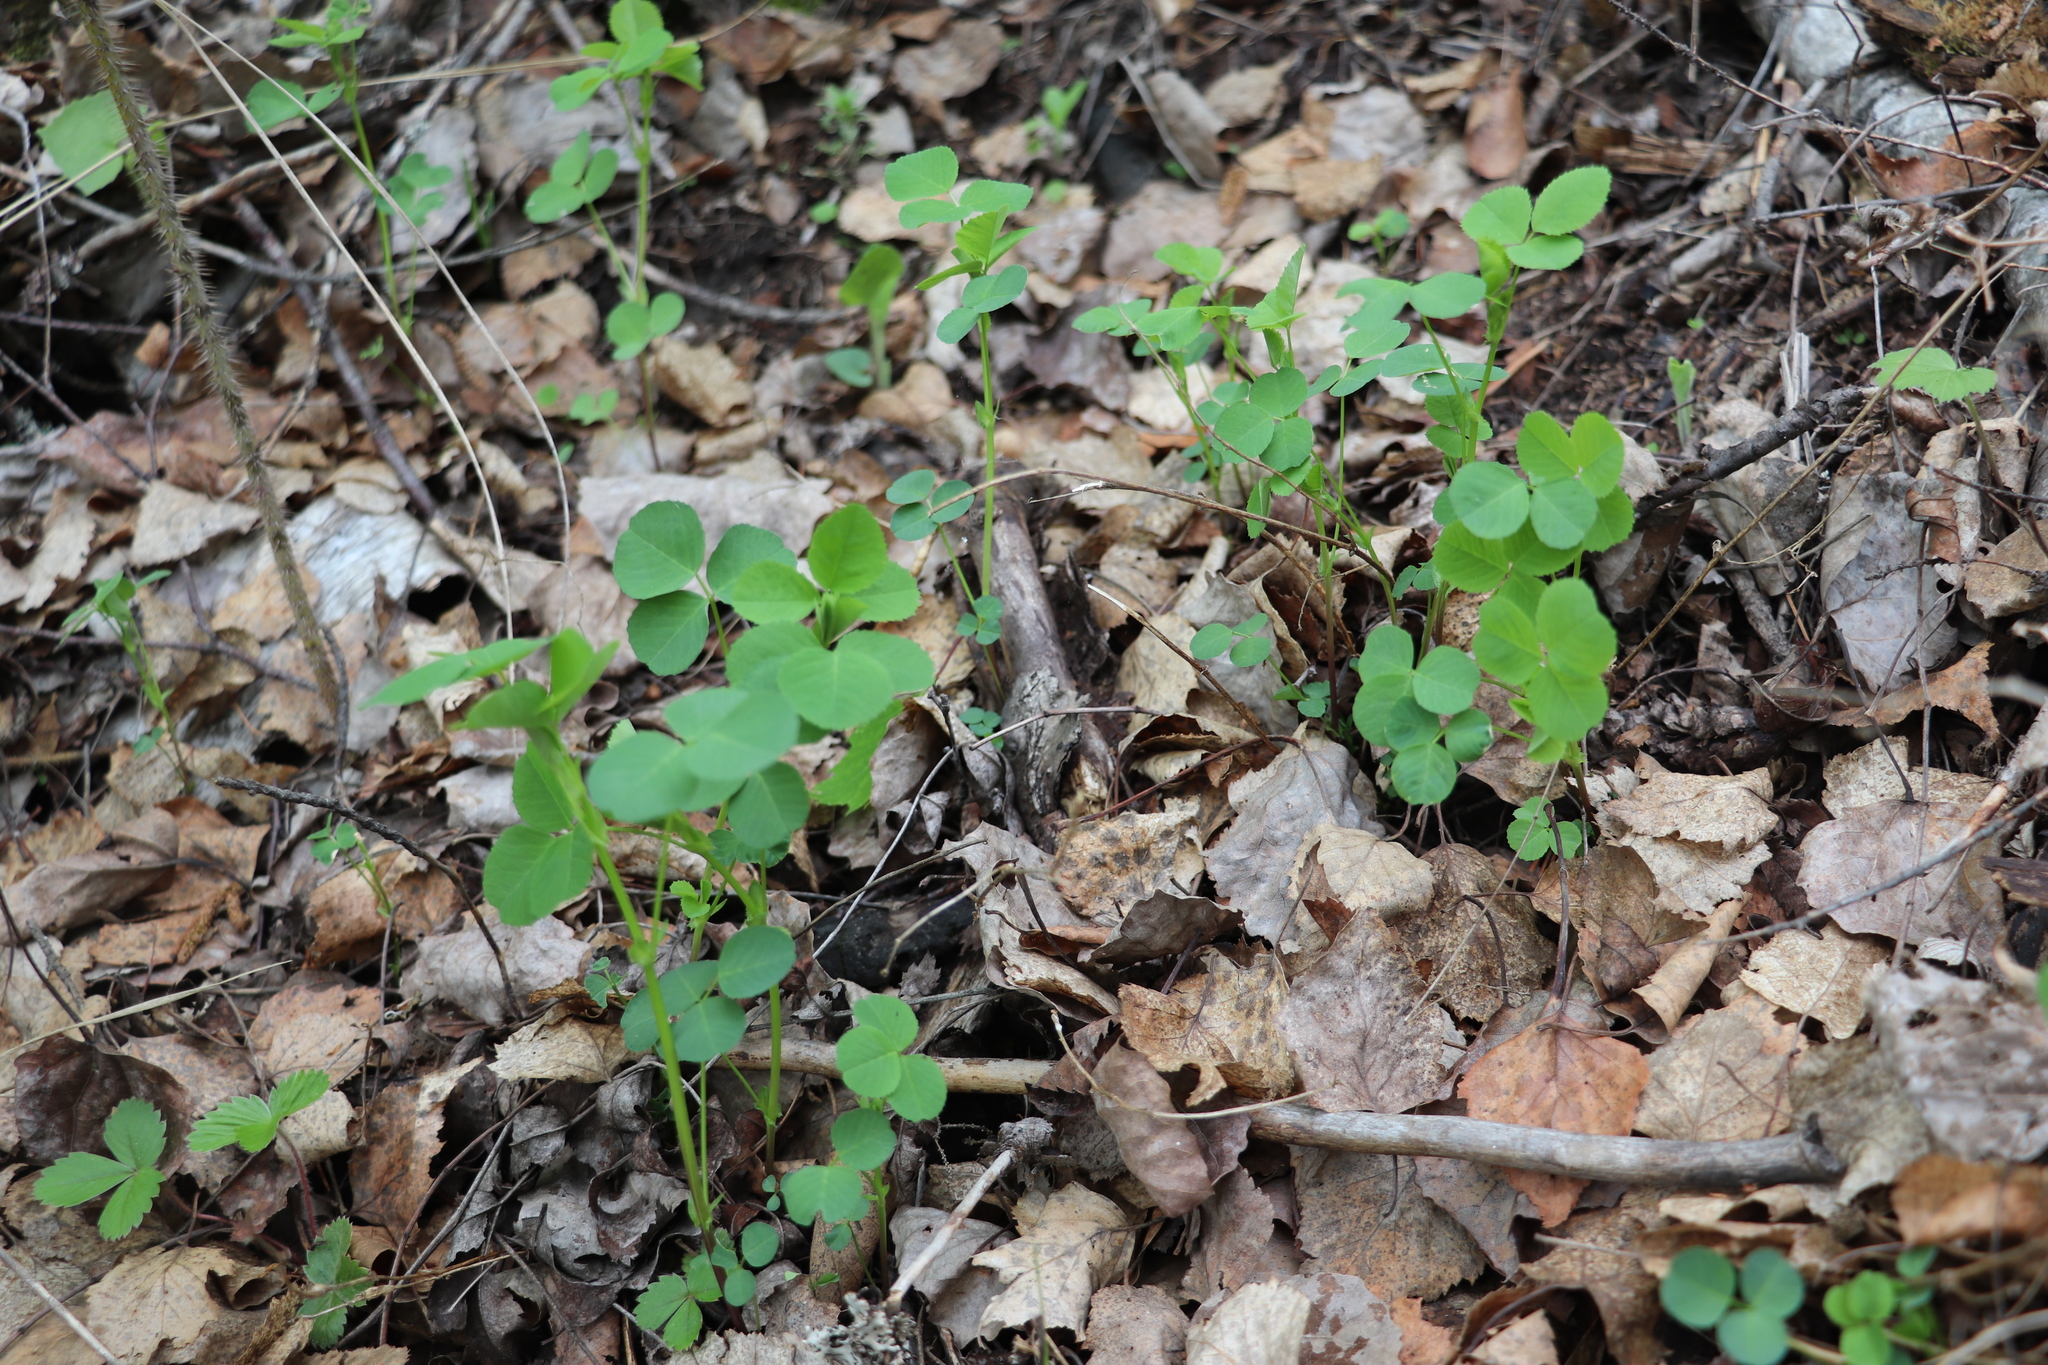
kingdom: Plantae
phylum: Tracheophyta
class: Magnoliopsida
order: Fabales
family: Fabaceae
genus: Medicago
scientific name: Medicago platycarpos
